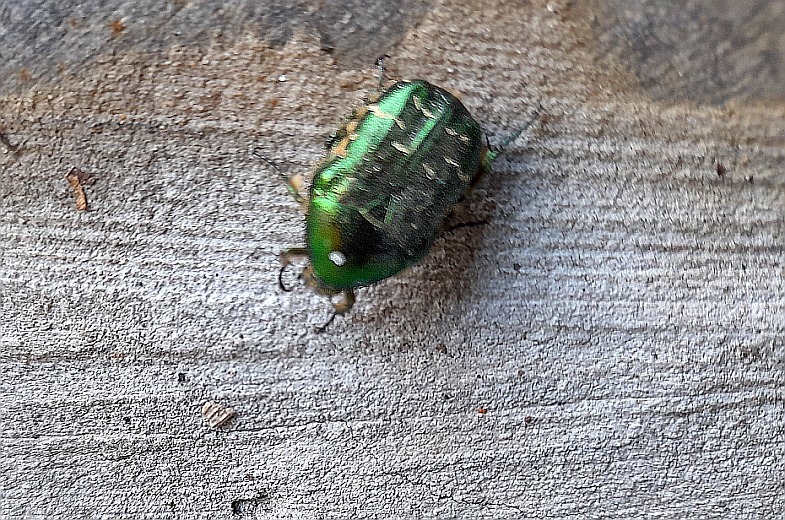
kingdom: Animalia
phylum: Arthropoda
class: Insecta
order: Coleoptera
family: Scarabaeidae
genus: Cetonia
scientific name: Cetonia aurata
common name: Rose chafer
